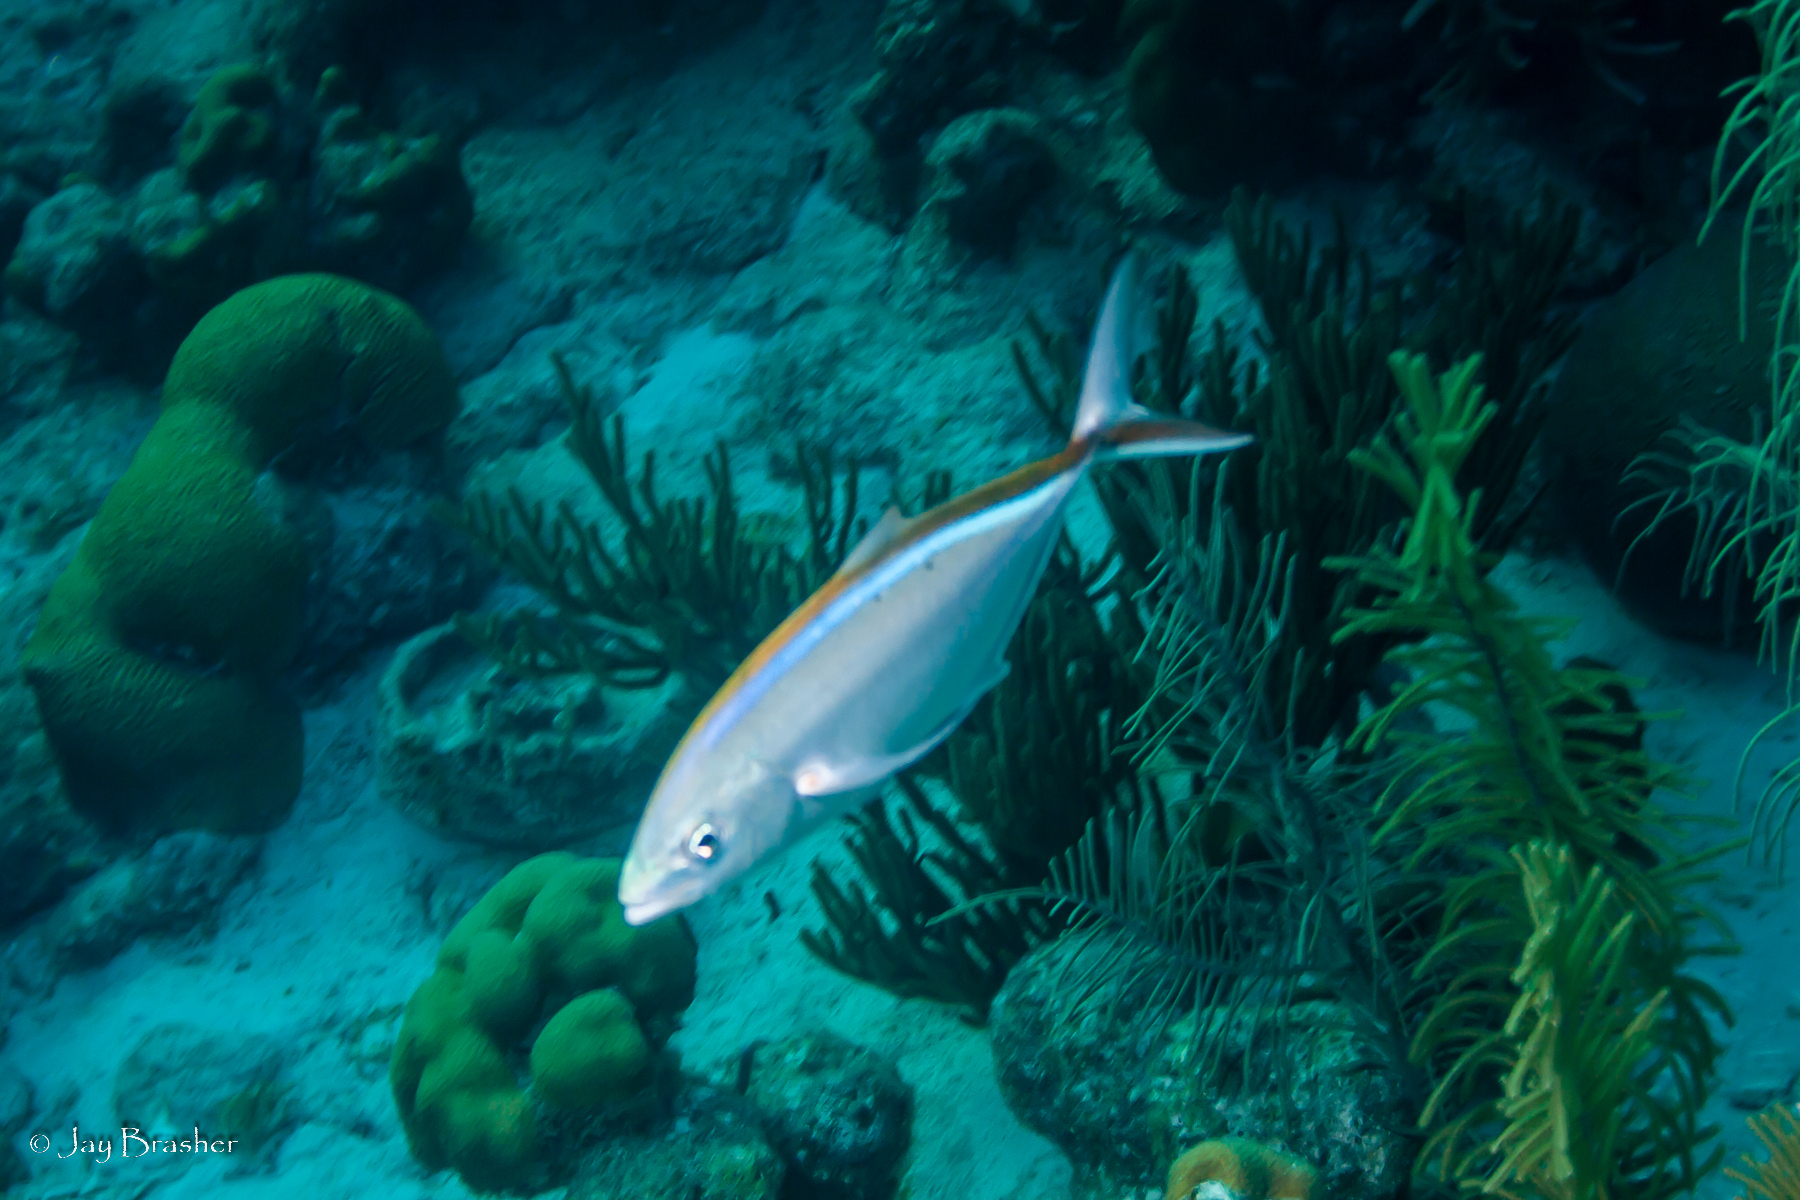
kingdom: Animalia
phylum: Chordata
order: Perciformes
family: Carangidae
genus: Caranx
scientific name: Caranx ruber
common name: Bar jack
